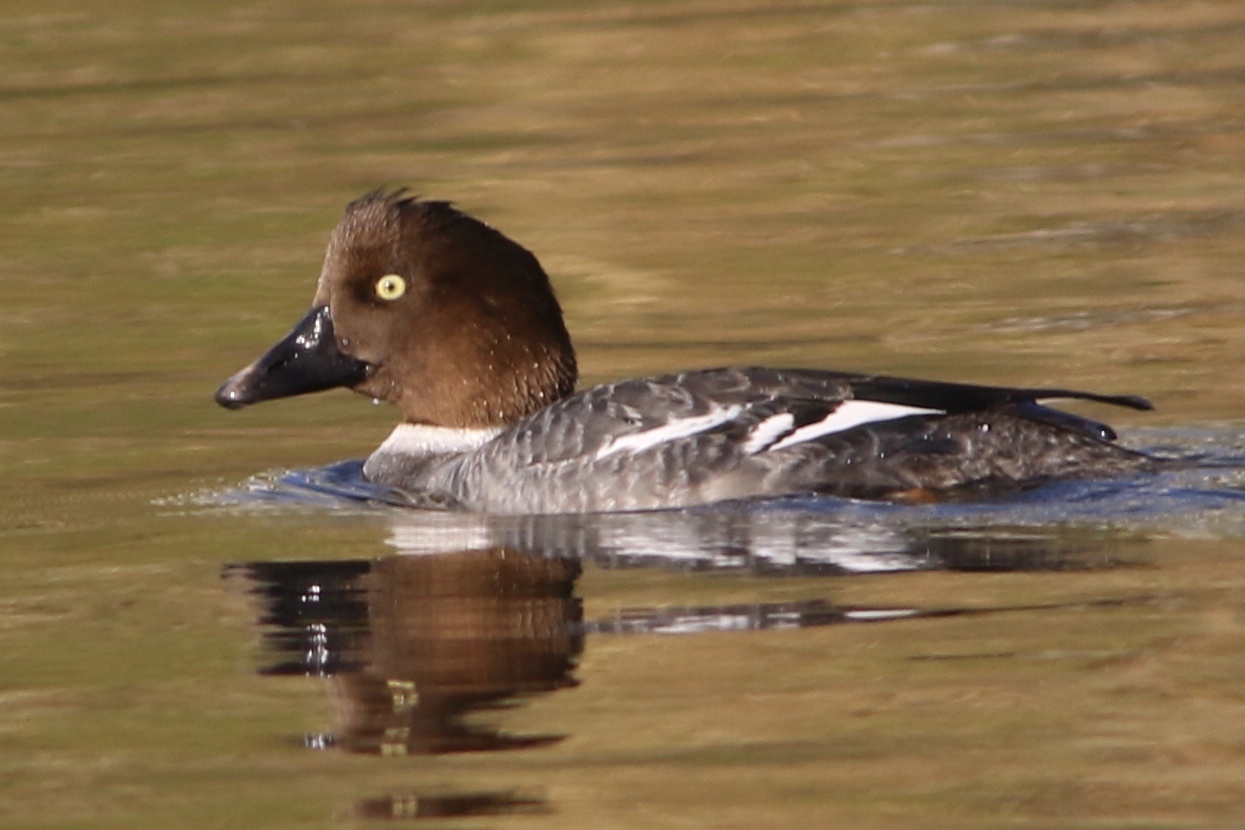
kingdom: Animalia
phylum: Chordata
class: Aves
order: Anseriformes
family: Anatidae
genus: Bucephala
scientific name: Bucephala clangula
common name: Common goldeneye
